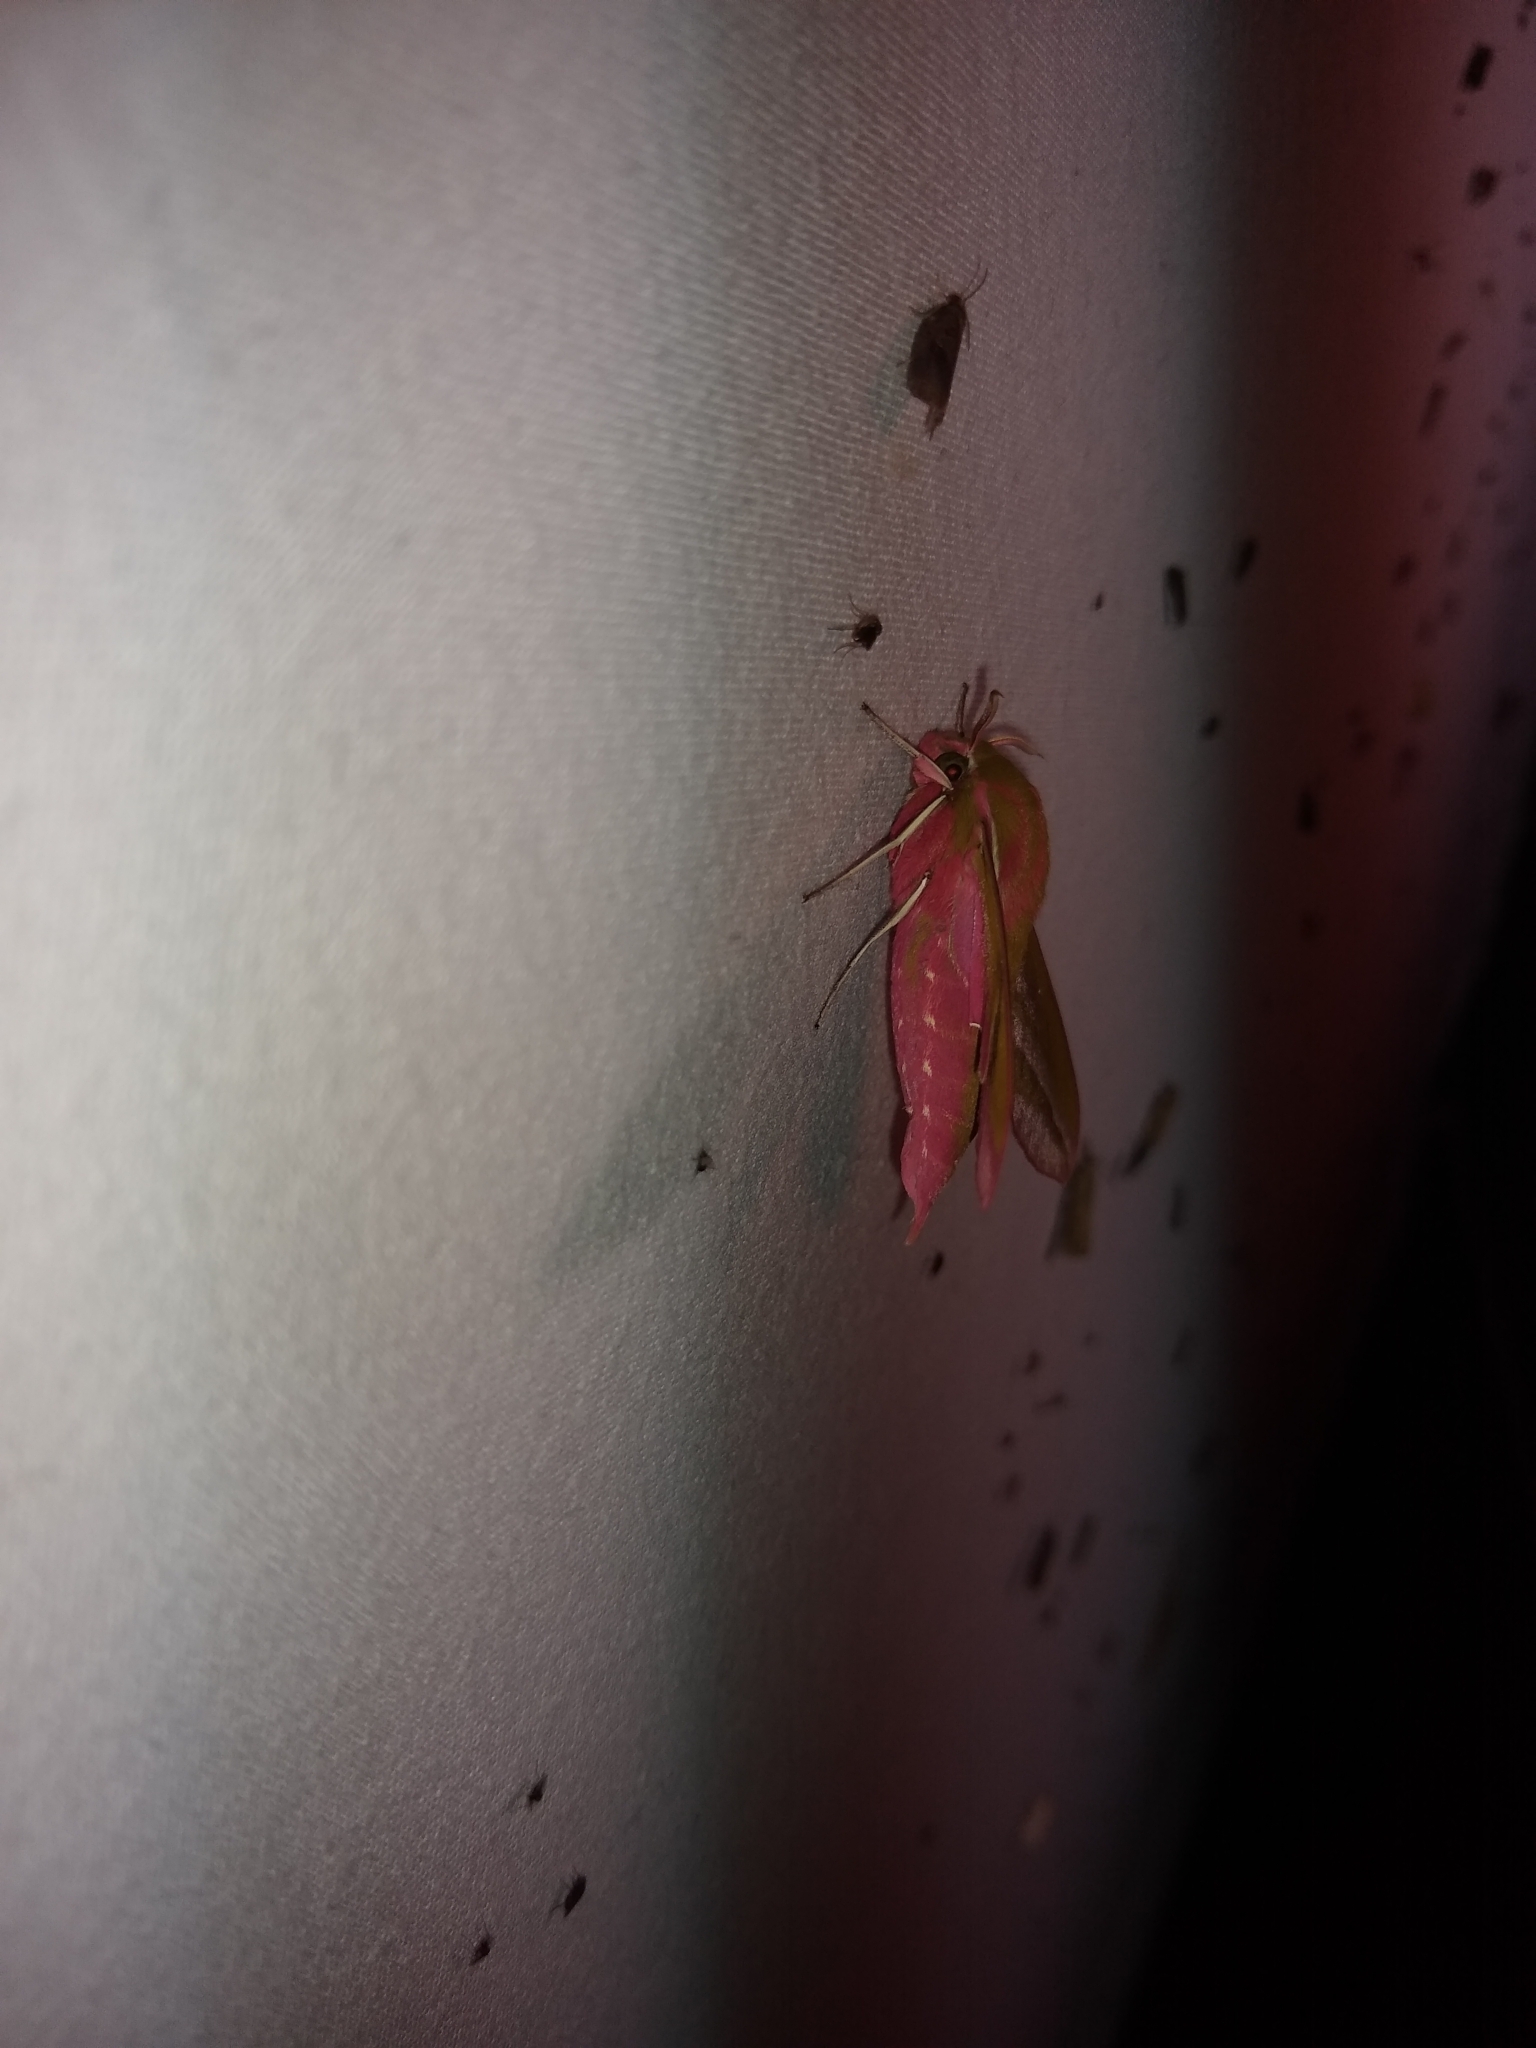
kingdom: Animalia
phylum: Arthropoda
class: Insecta
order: Lepidoptera
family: Sphingidae
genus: Deilephila
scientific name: Deilephila elpenor
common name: Elephant hawk-moth
